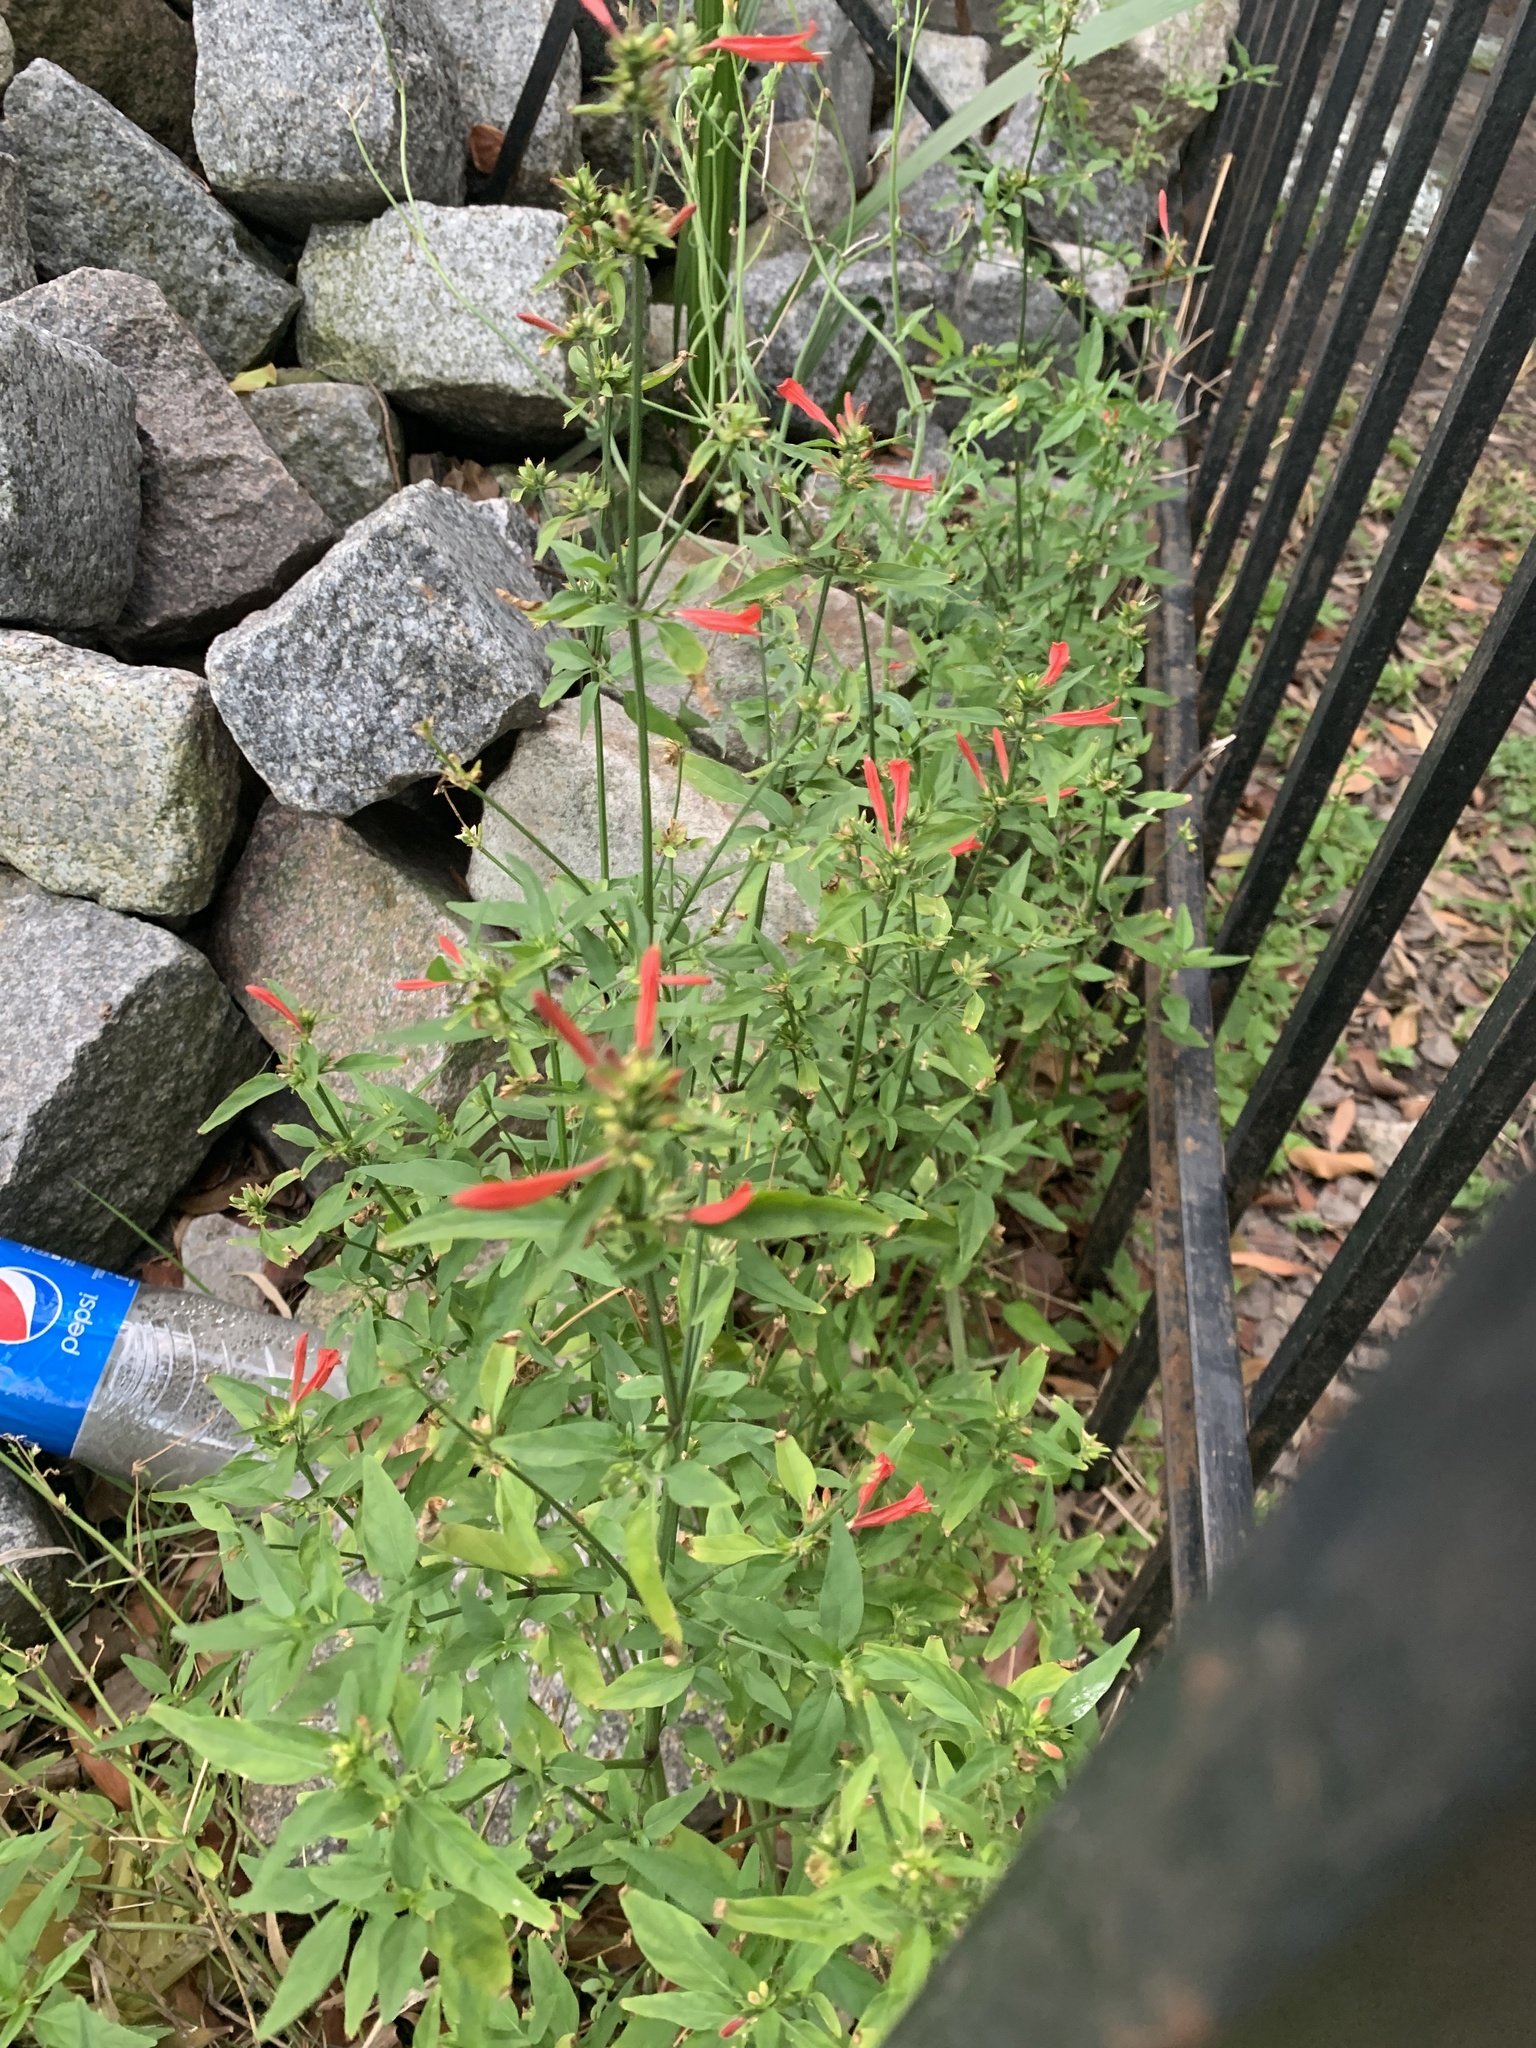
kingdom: Plantae
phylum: Tracheophyta
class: Magnoliopsida
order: Lamiales
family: Acanthaceae
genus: Dicliptera
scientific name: Dicliptera squarrosa
